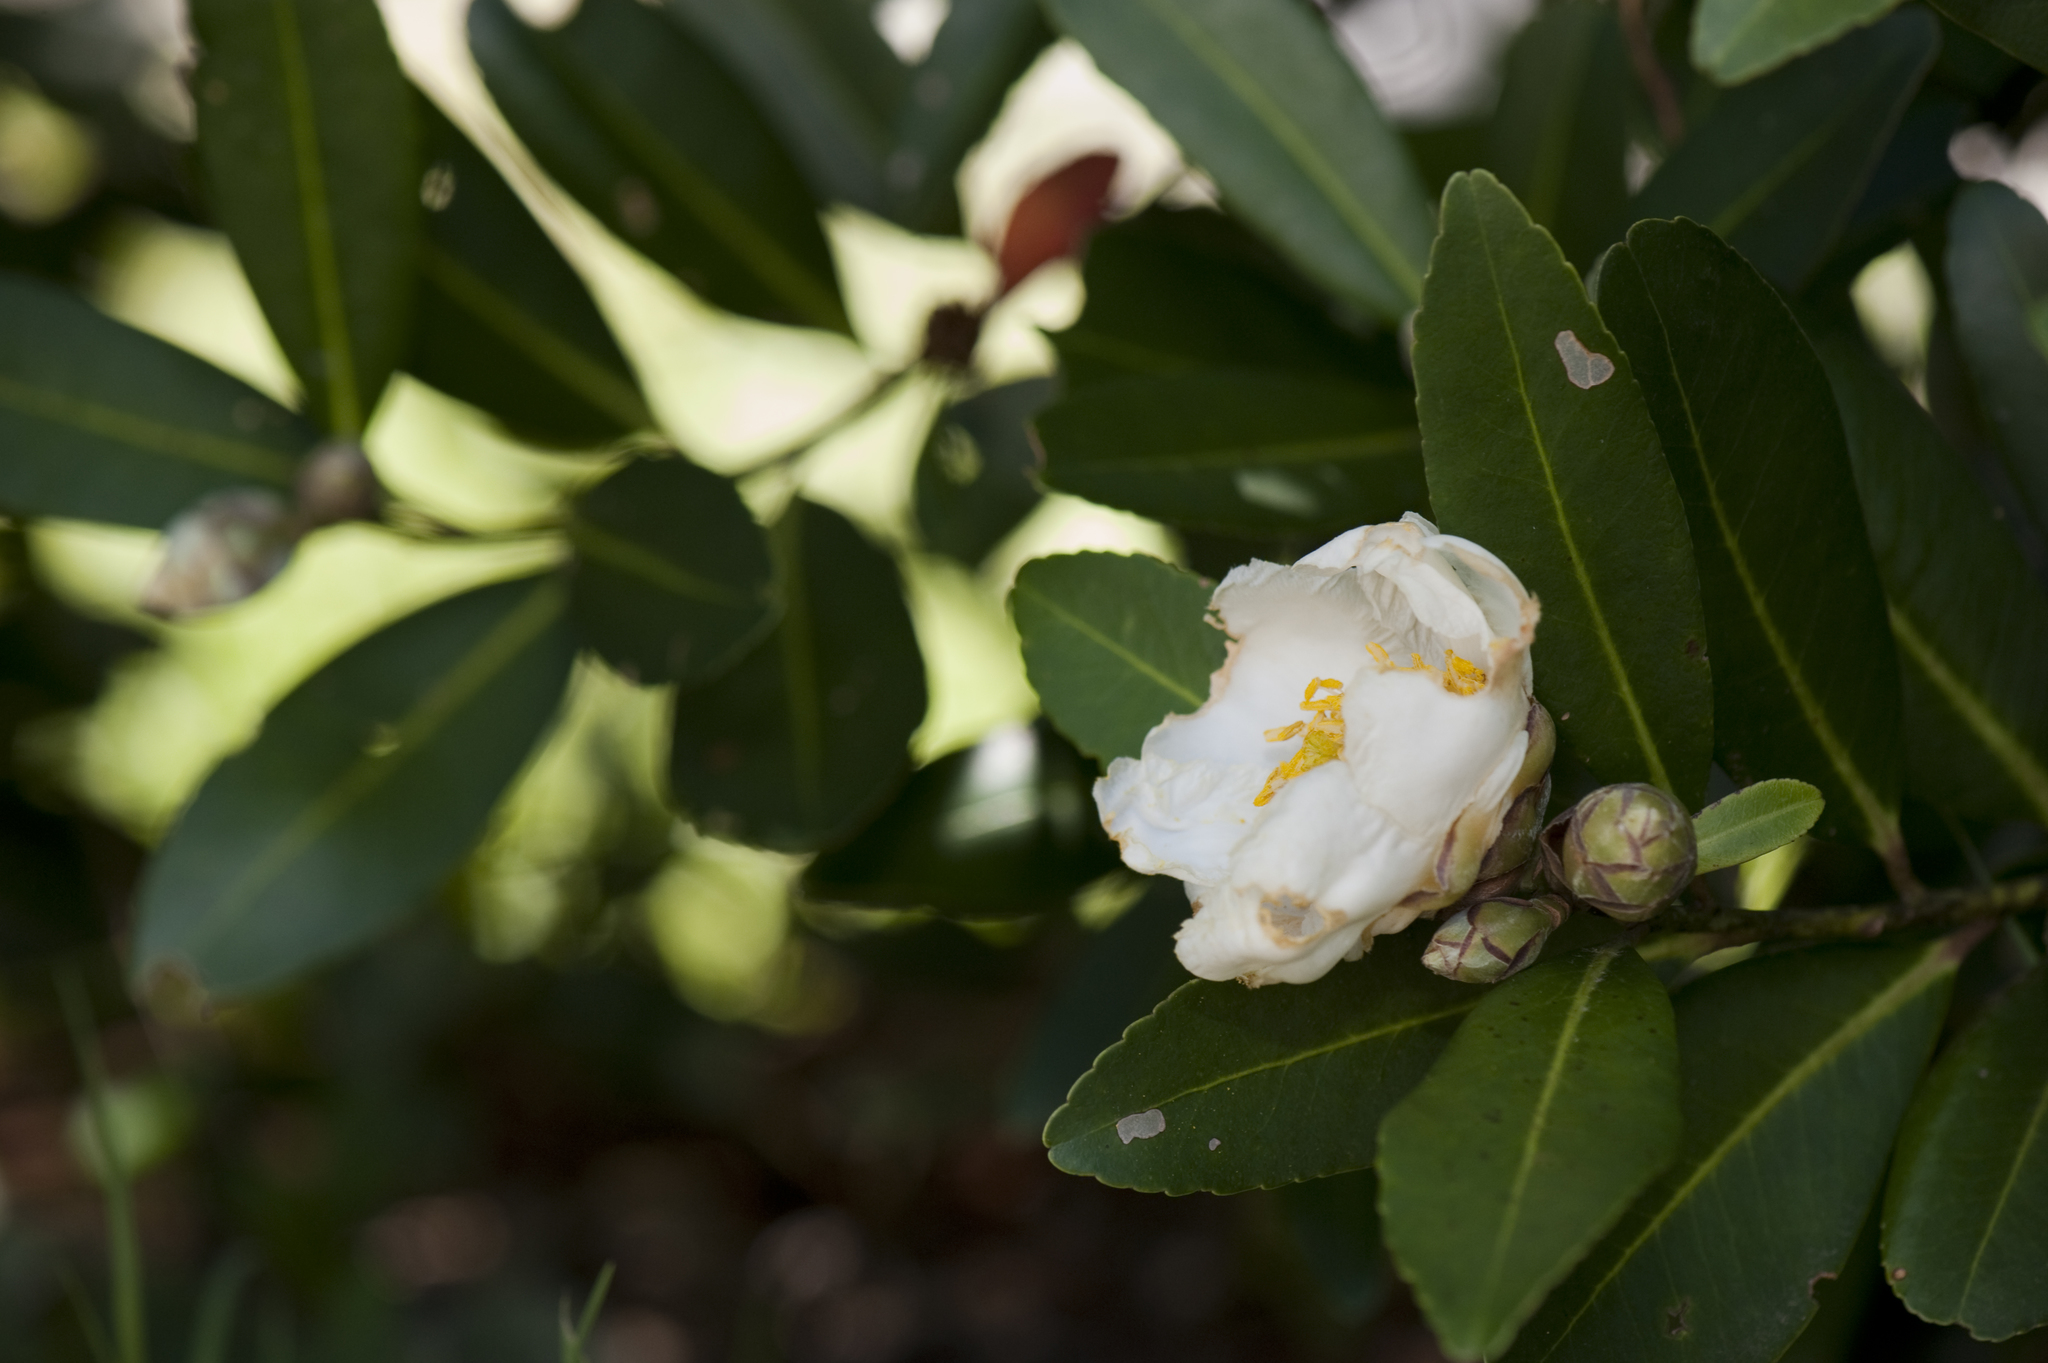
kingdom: Plantae
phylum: Tracheophyta
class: Magnoliopsida
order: Ericales
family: Theaceae
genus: Polyspora
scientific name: Polyspora axillaris
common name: Fried egg tree
